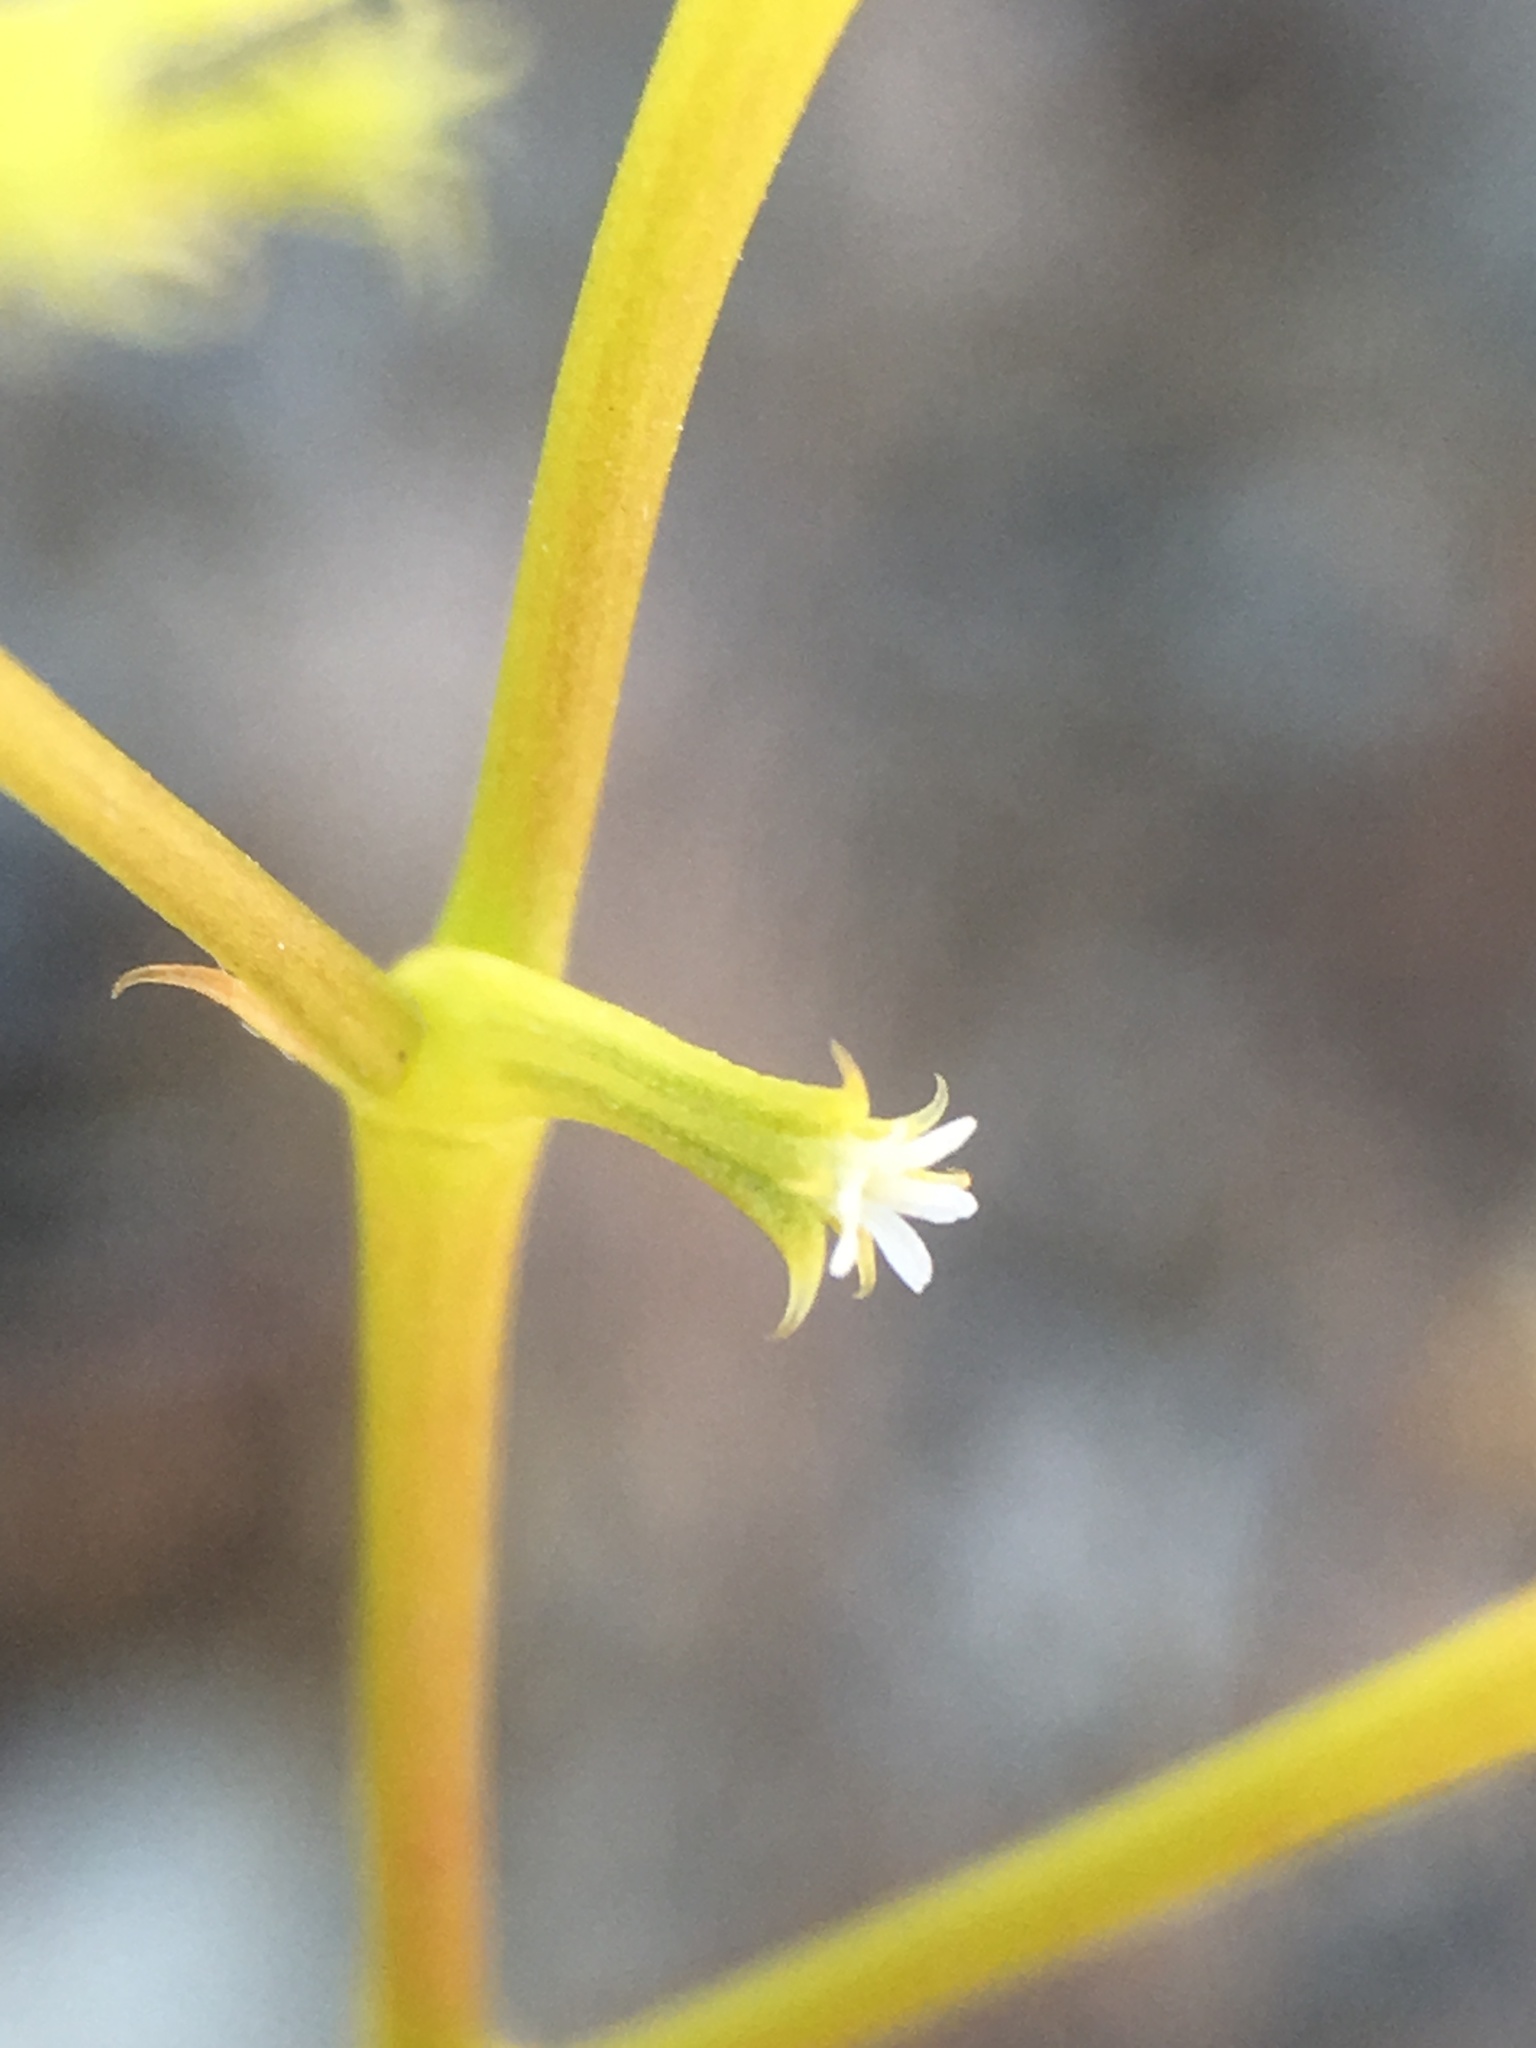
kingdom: Plantae
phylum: Tracheophyta
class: Magnoliopsida
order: Caryophyllales
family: Polygonaceae
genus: Chorizanthe
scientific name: Chorizanthe brevicornu
